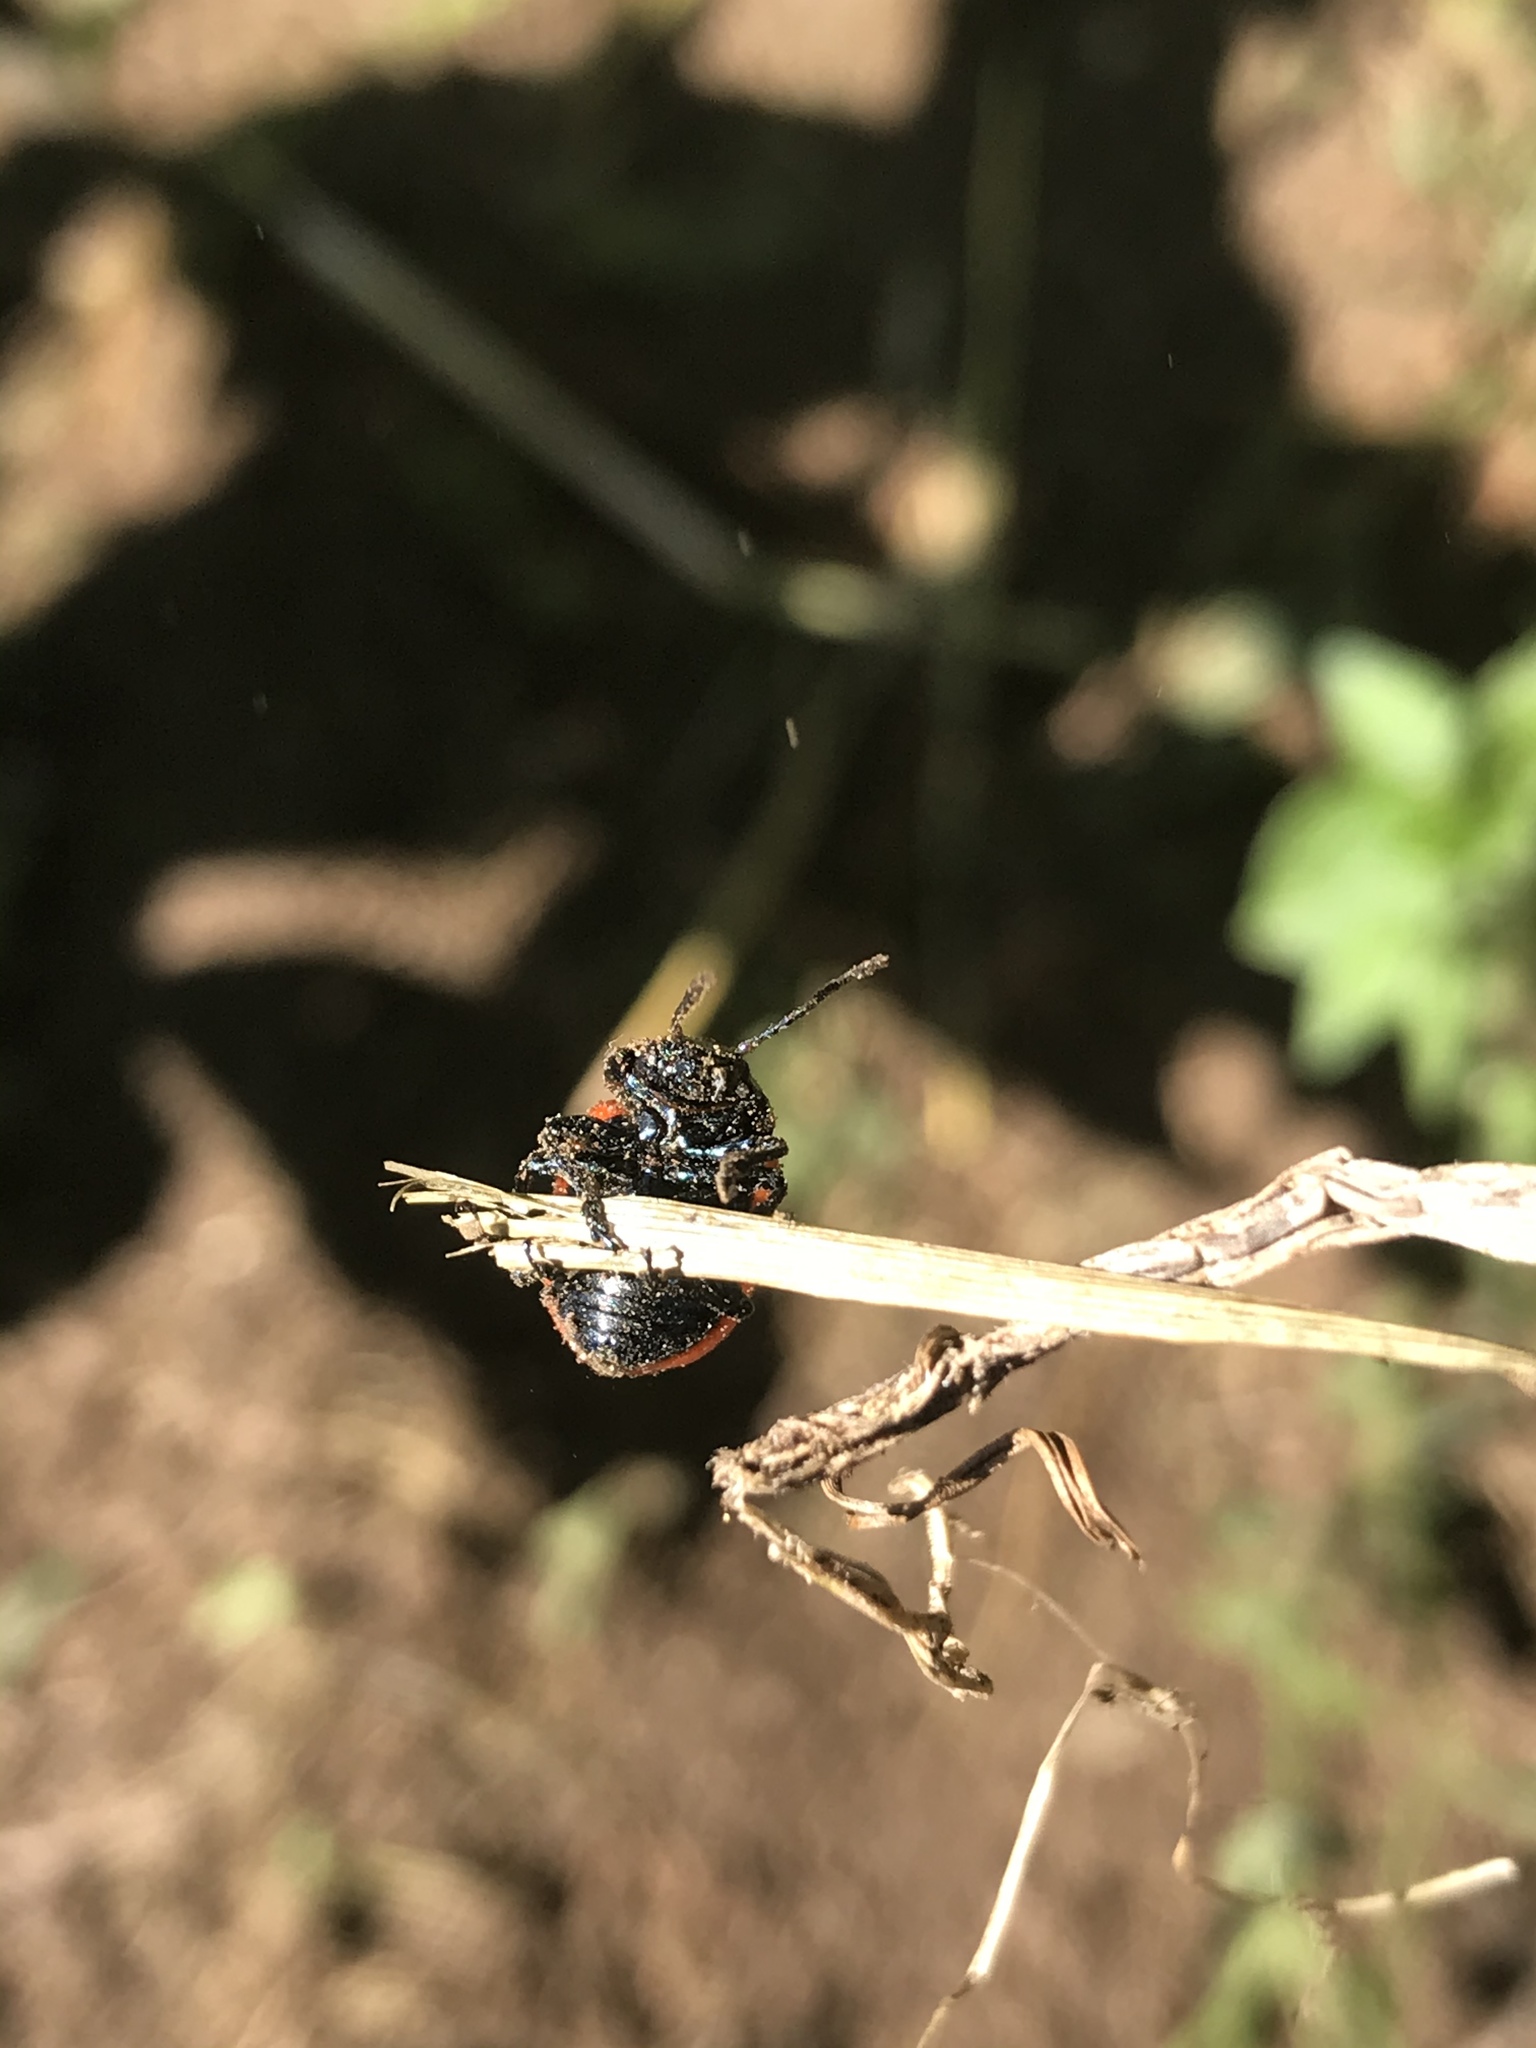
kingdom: Animalia
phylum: Arthropoda
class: Insecta
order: Coleoptera
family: Chrysomelidae
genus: Labidomera
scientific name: Labidomera clivicollis
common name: Swamp milkweed leaf beetle
